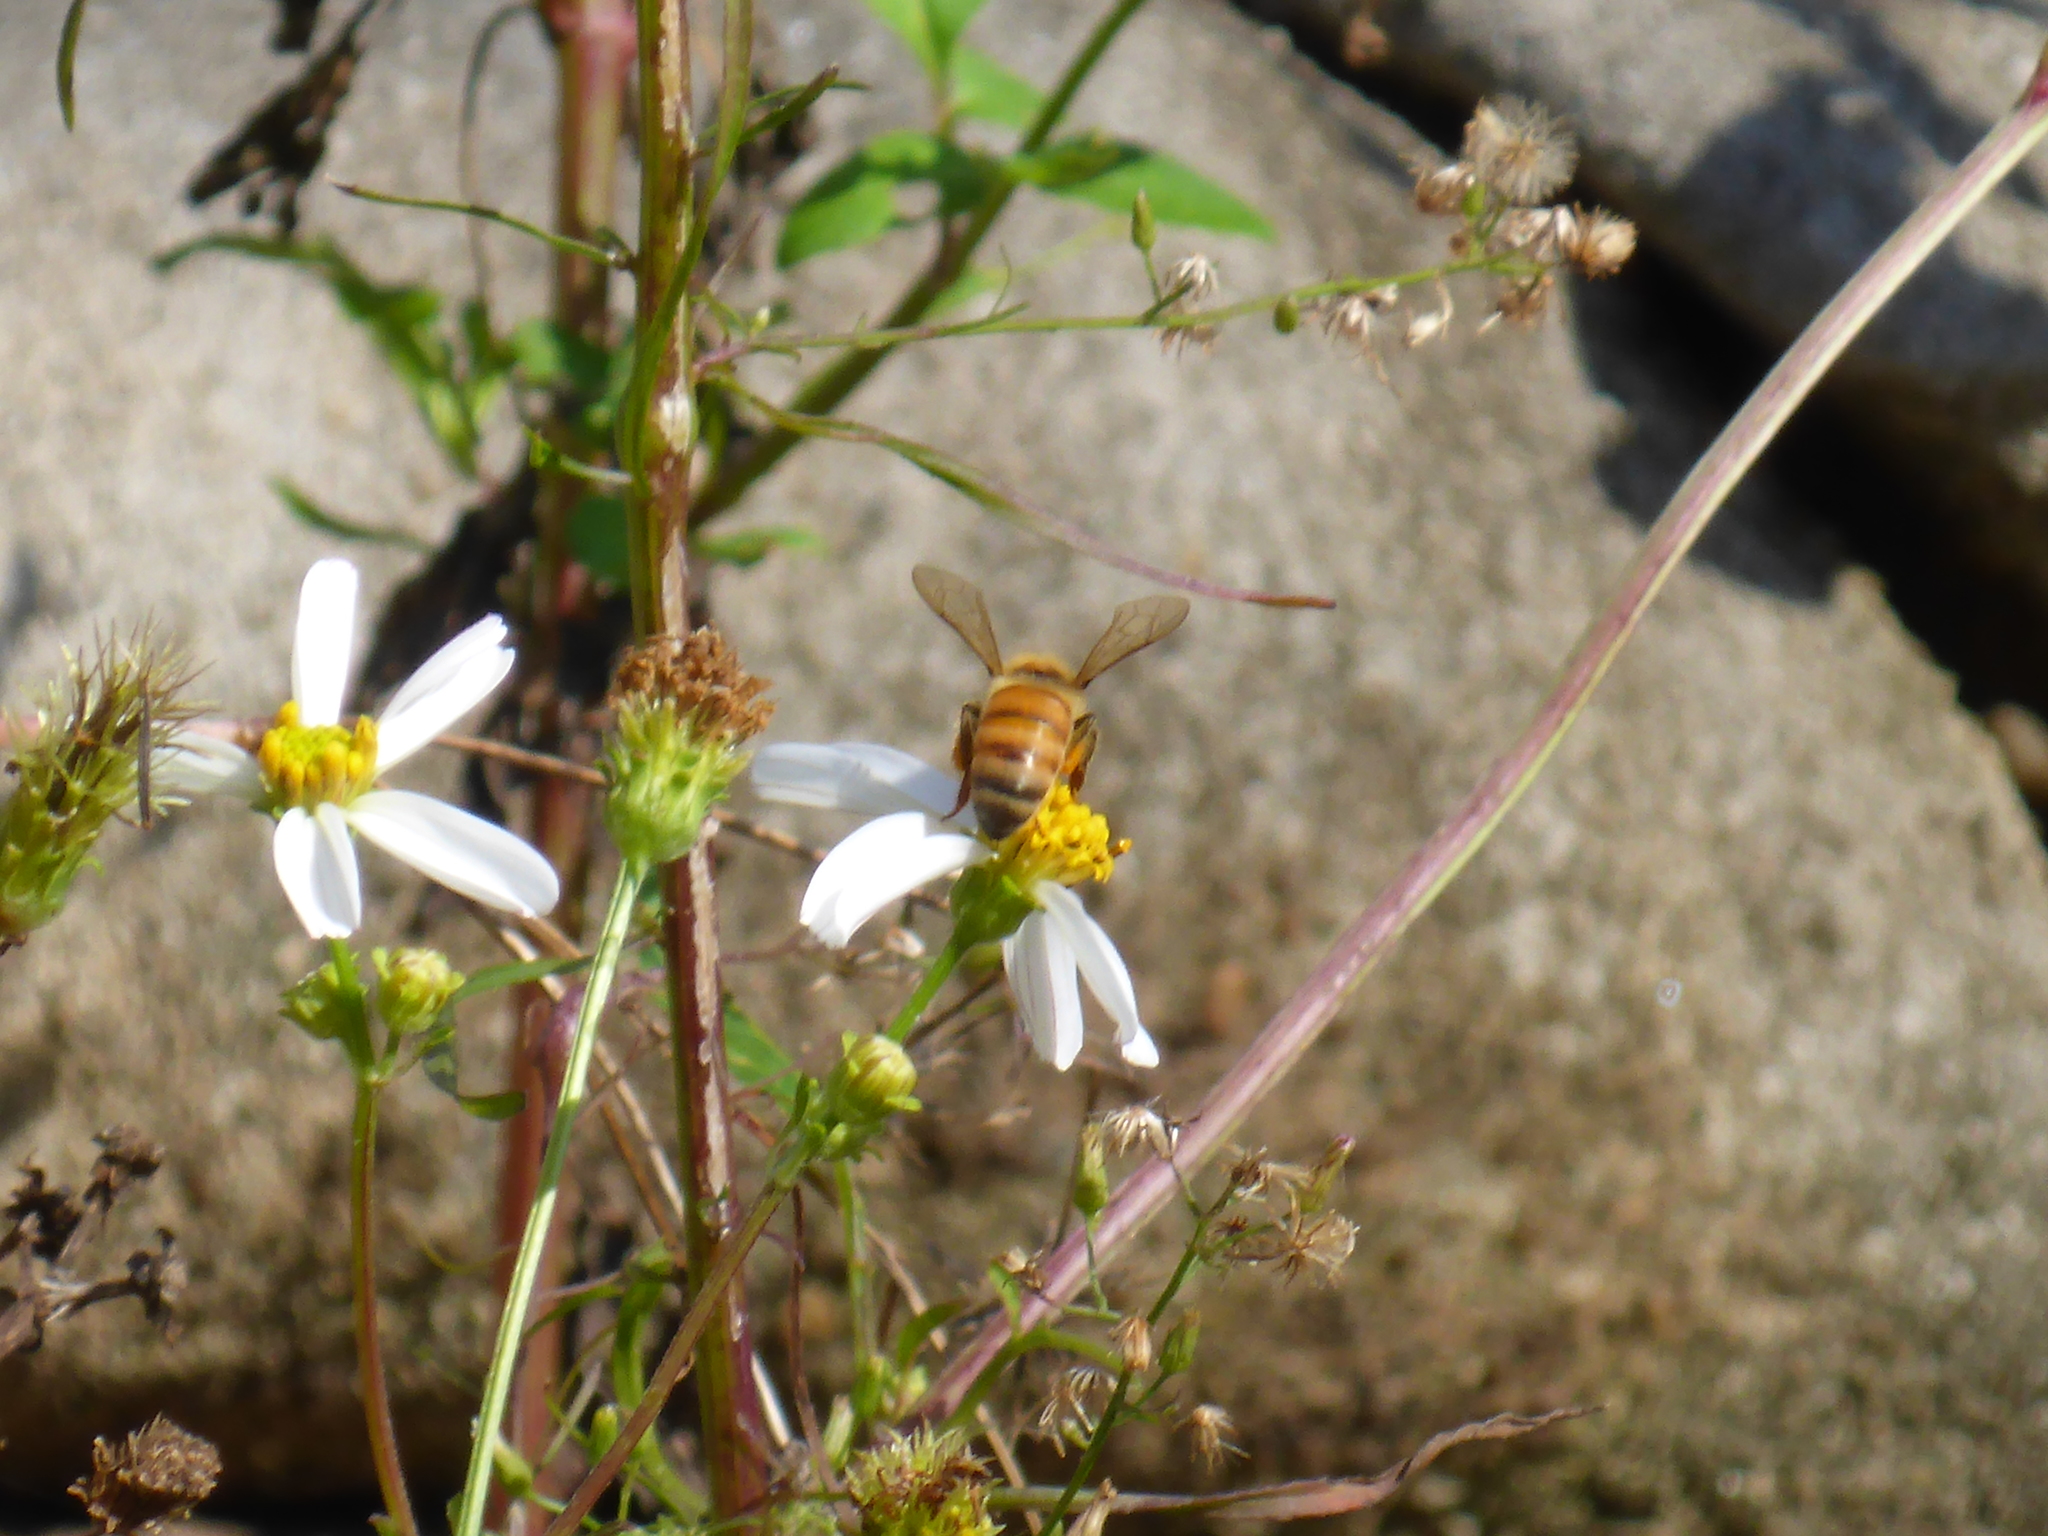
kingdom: Animalia
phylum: Arthropoda
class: Insecta
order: Hymenoptera
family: Apidae
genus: Apis
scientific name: Apis mellifera
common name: Honey bee
